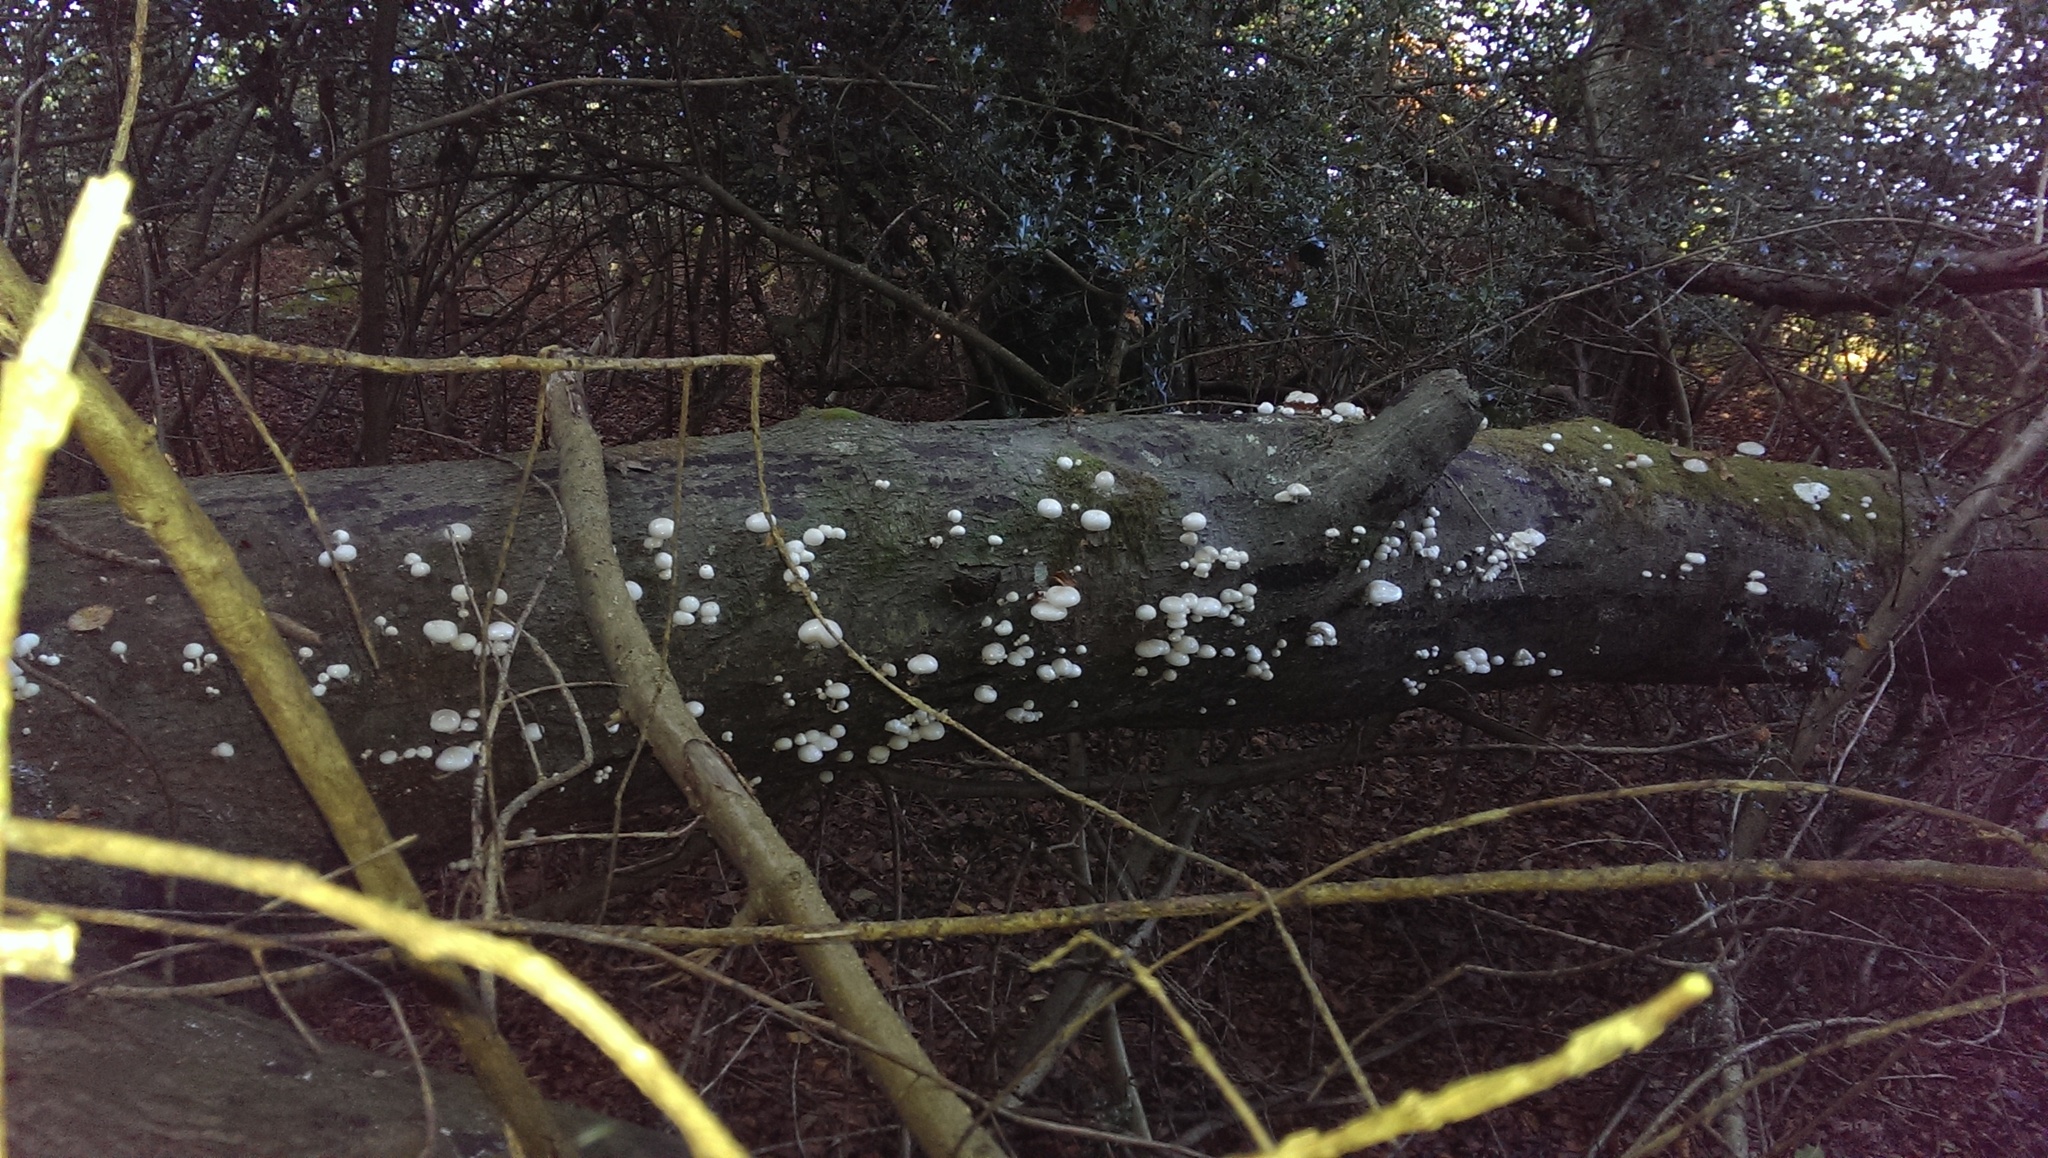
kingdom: Fungi
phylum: Basidiomycota
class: Agaricomycetes
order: Agaricales
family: Physalacriaceae
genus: Mucidula
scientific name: Mucidula mucida
